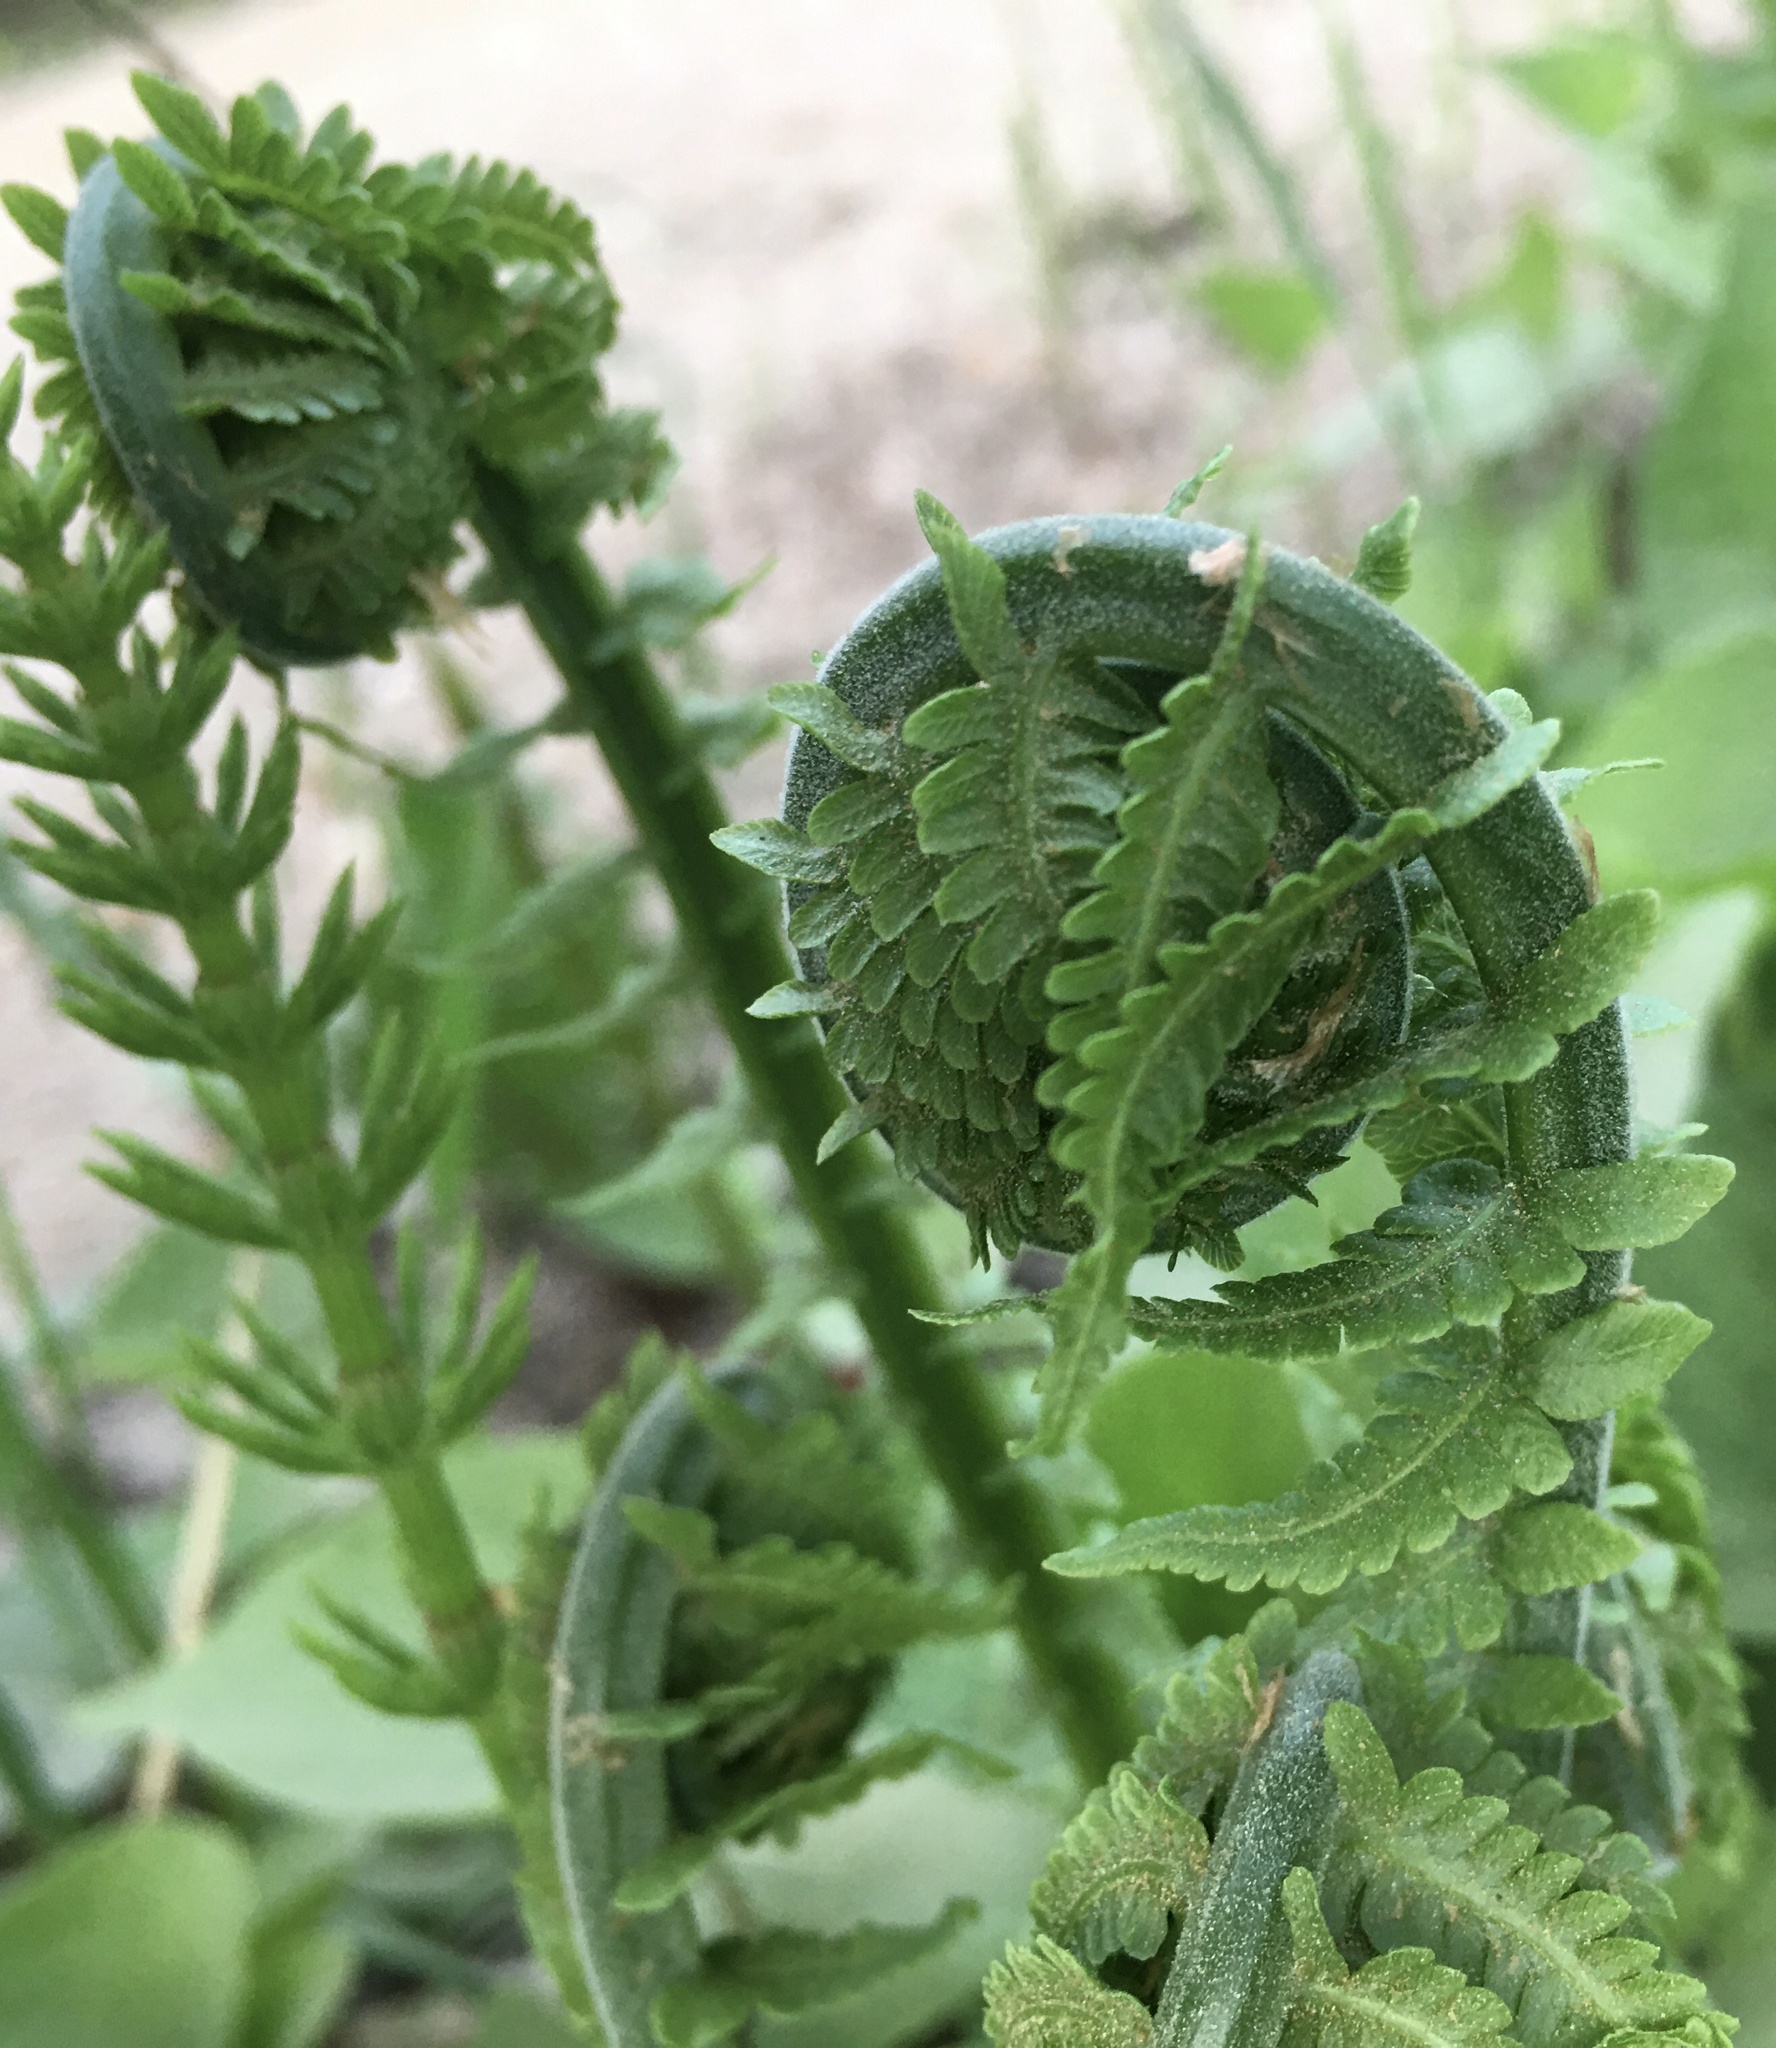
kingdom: Plantae
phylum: Tracheophyta
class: Polypodiopsida
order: Polypodiales
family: Onocleaceae
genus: Matteuccia
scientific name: Matteuccia struthiopteris
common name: Ostrich fern
